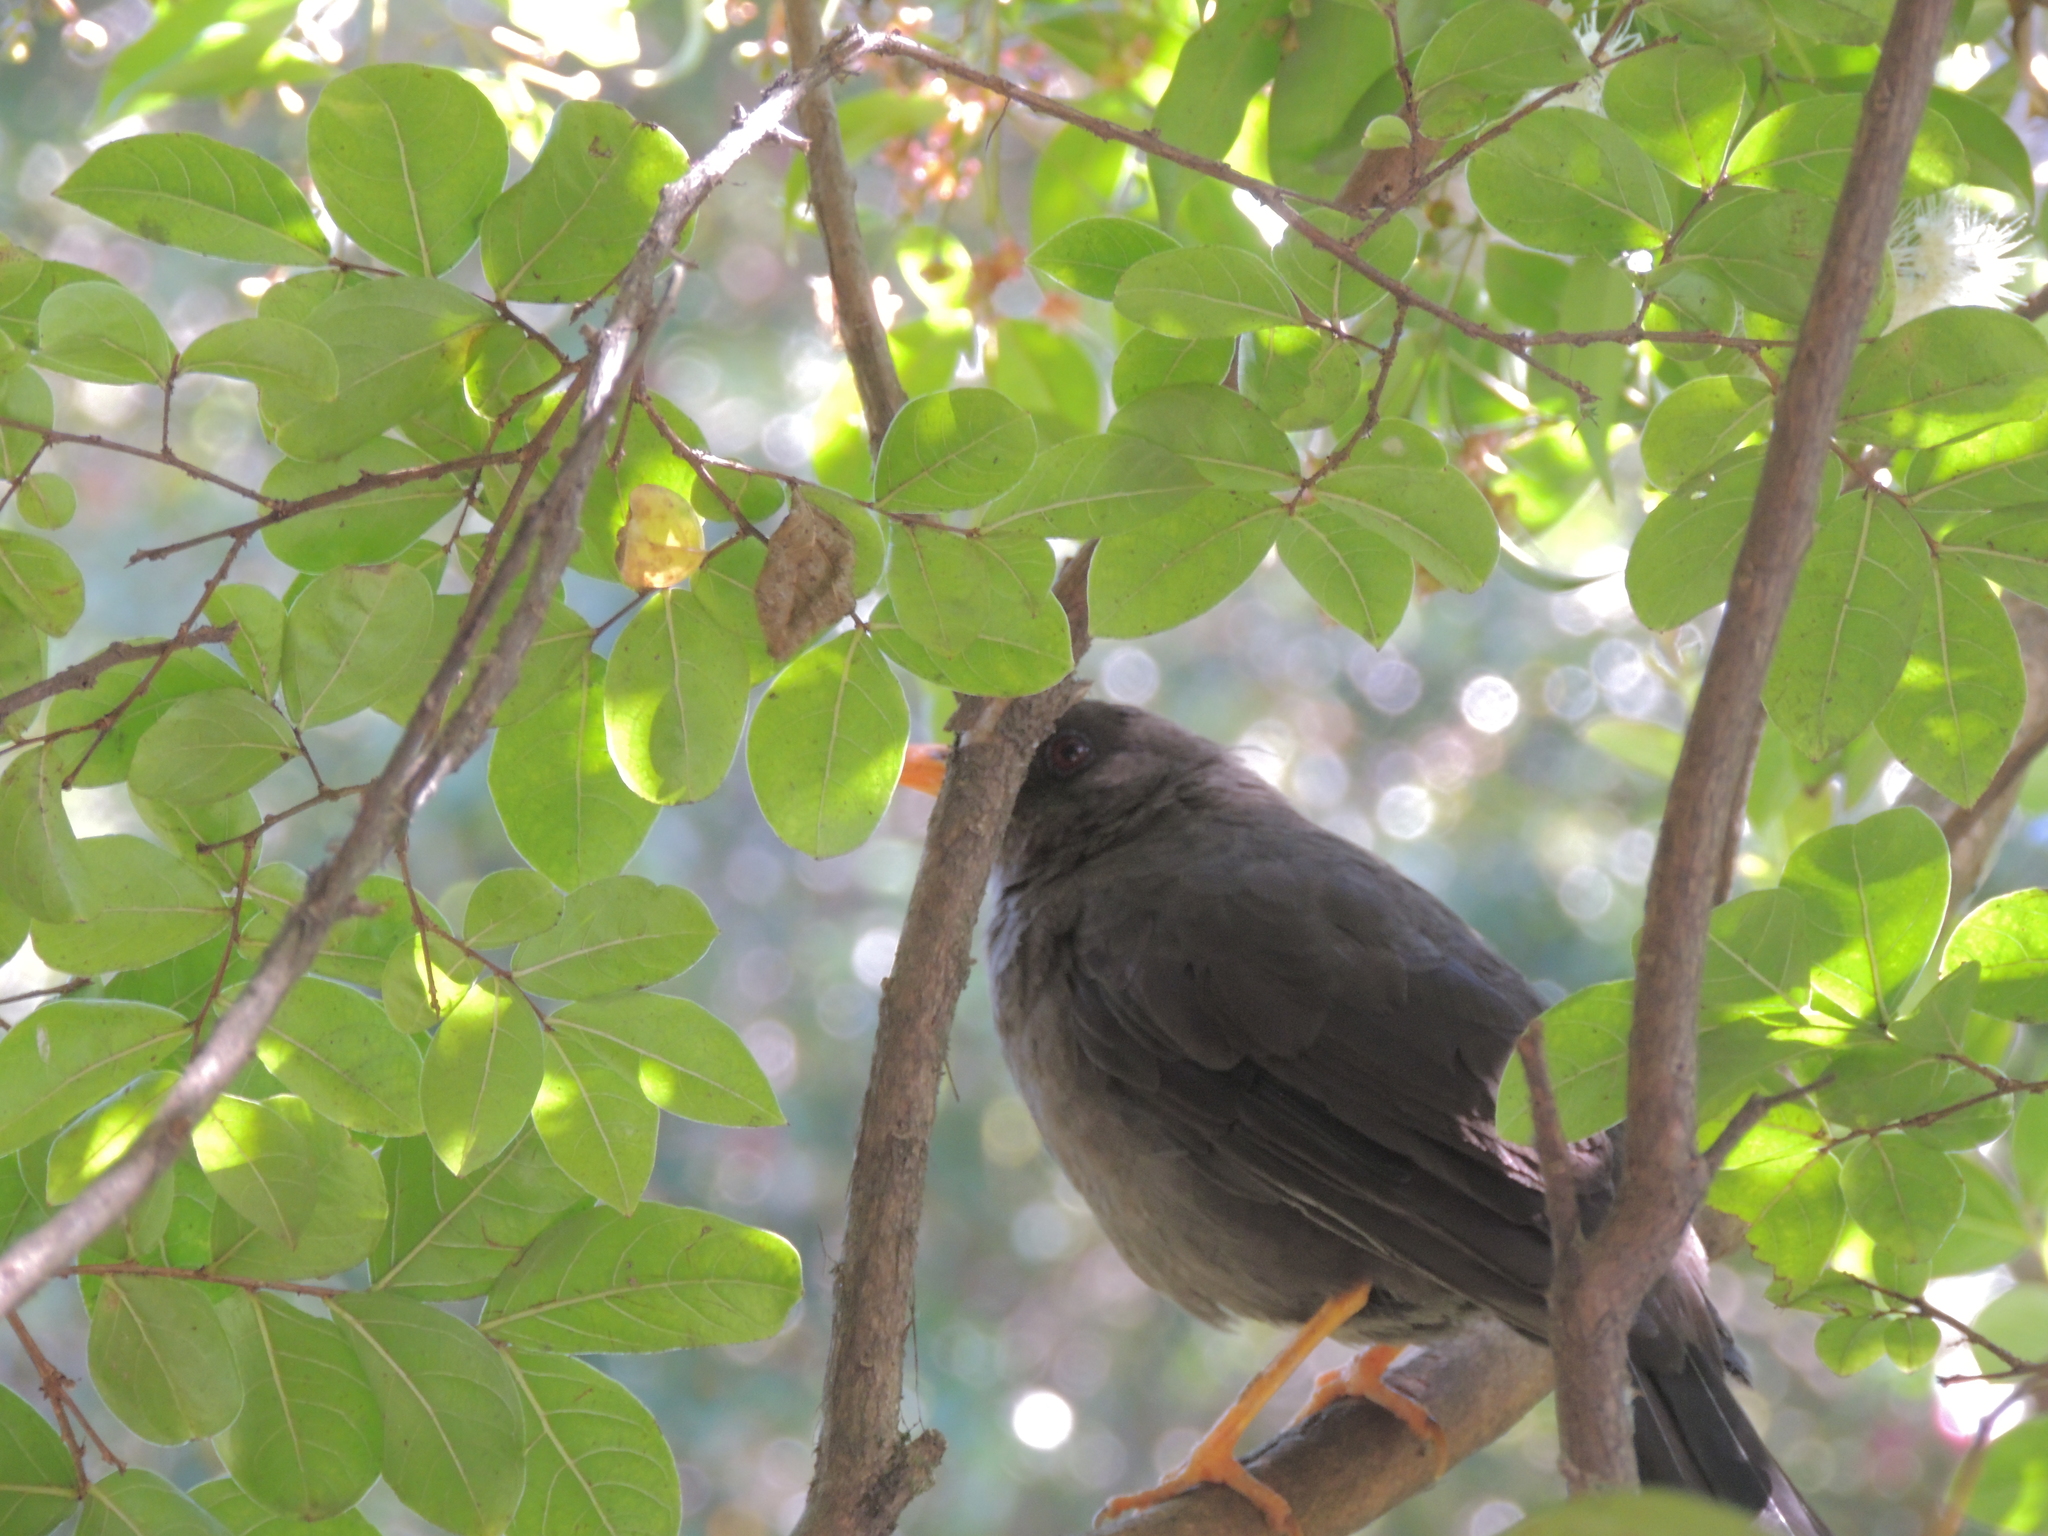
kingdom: Animalia
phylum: Chordata
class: Aves
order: Passeriformes
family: Turdidae
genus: Turdus
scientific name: Turdus fuscater
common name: Great thrush
